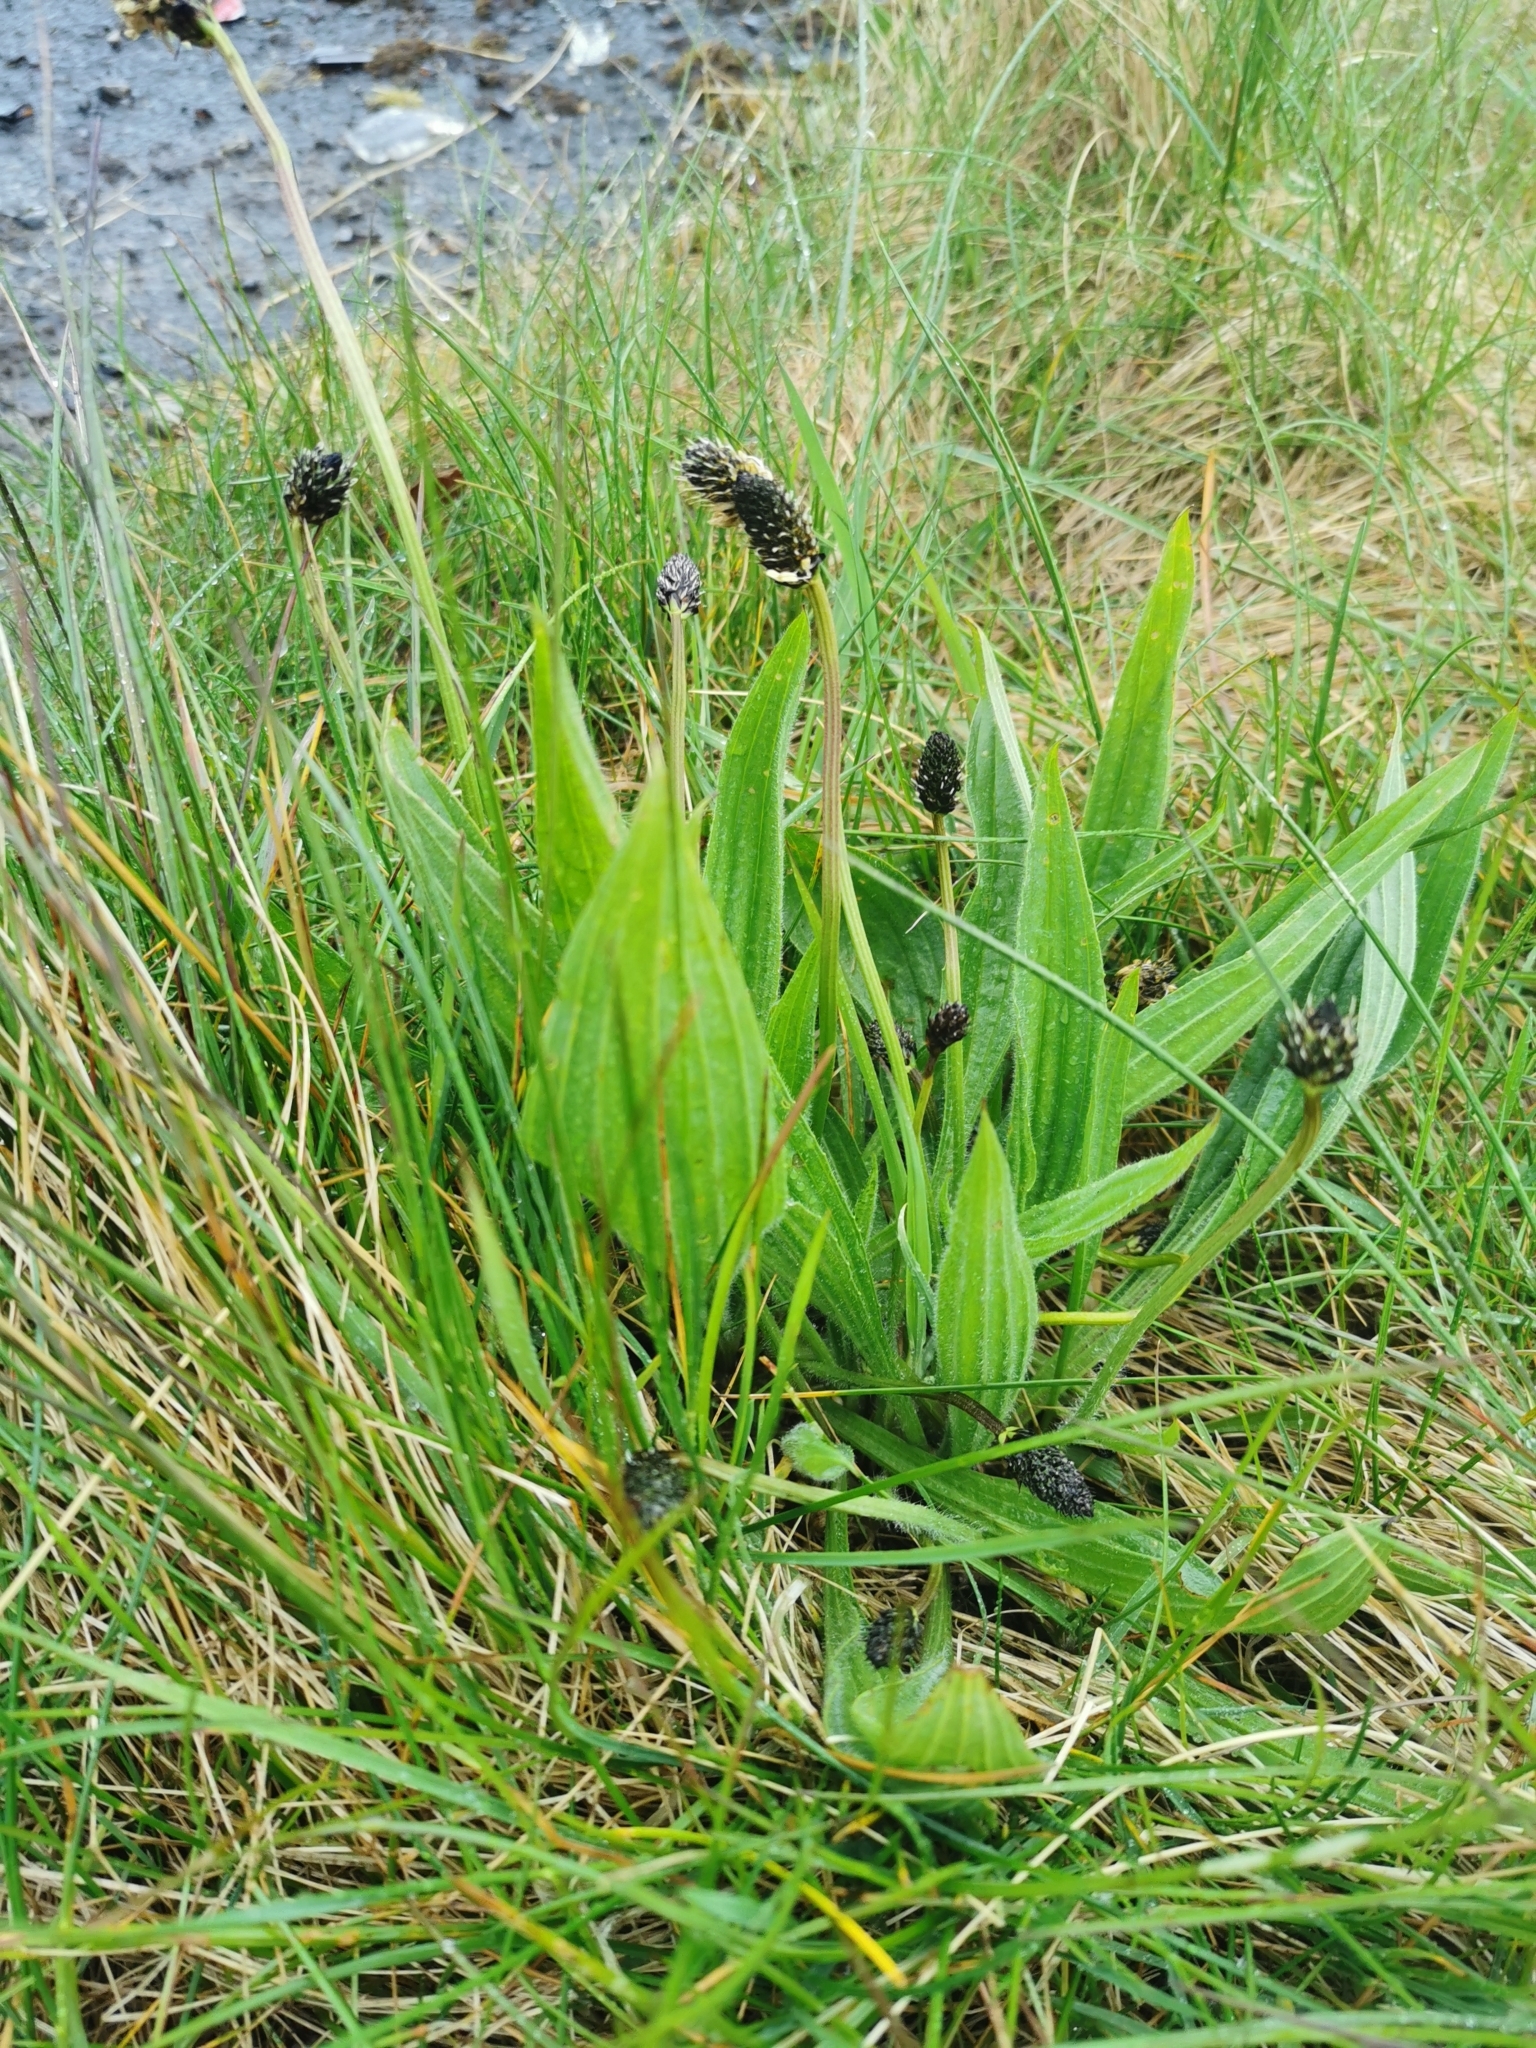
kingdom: Plantae
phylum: Tracheophyta
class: Magnoliopsida
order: Lamiales
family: Plantaginaceae
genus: Plantago
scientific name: Plantago lanceolata
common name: Ribwort plantain
